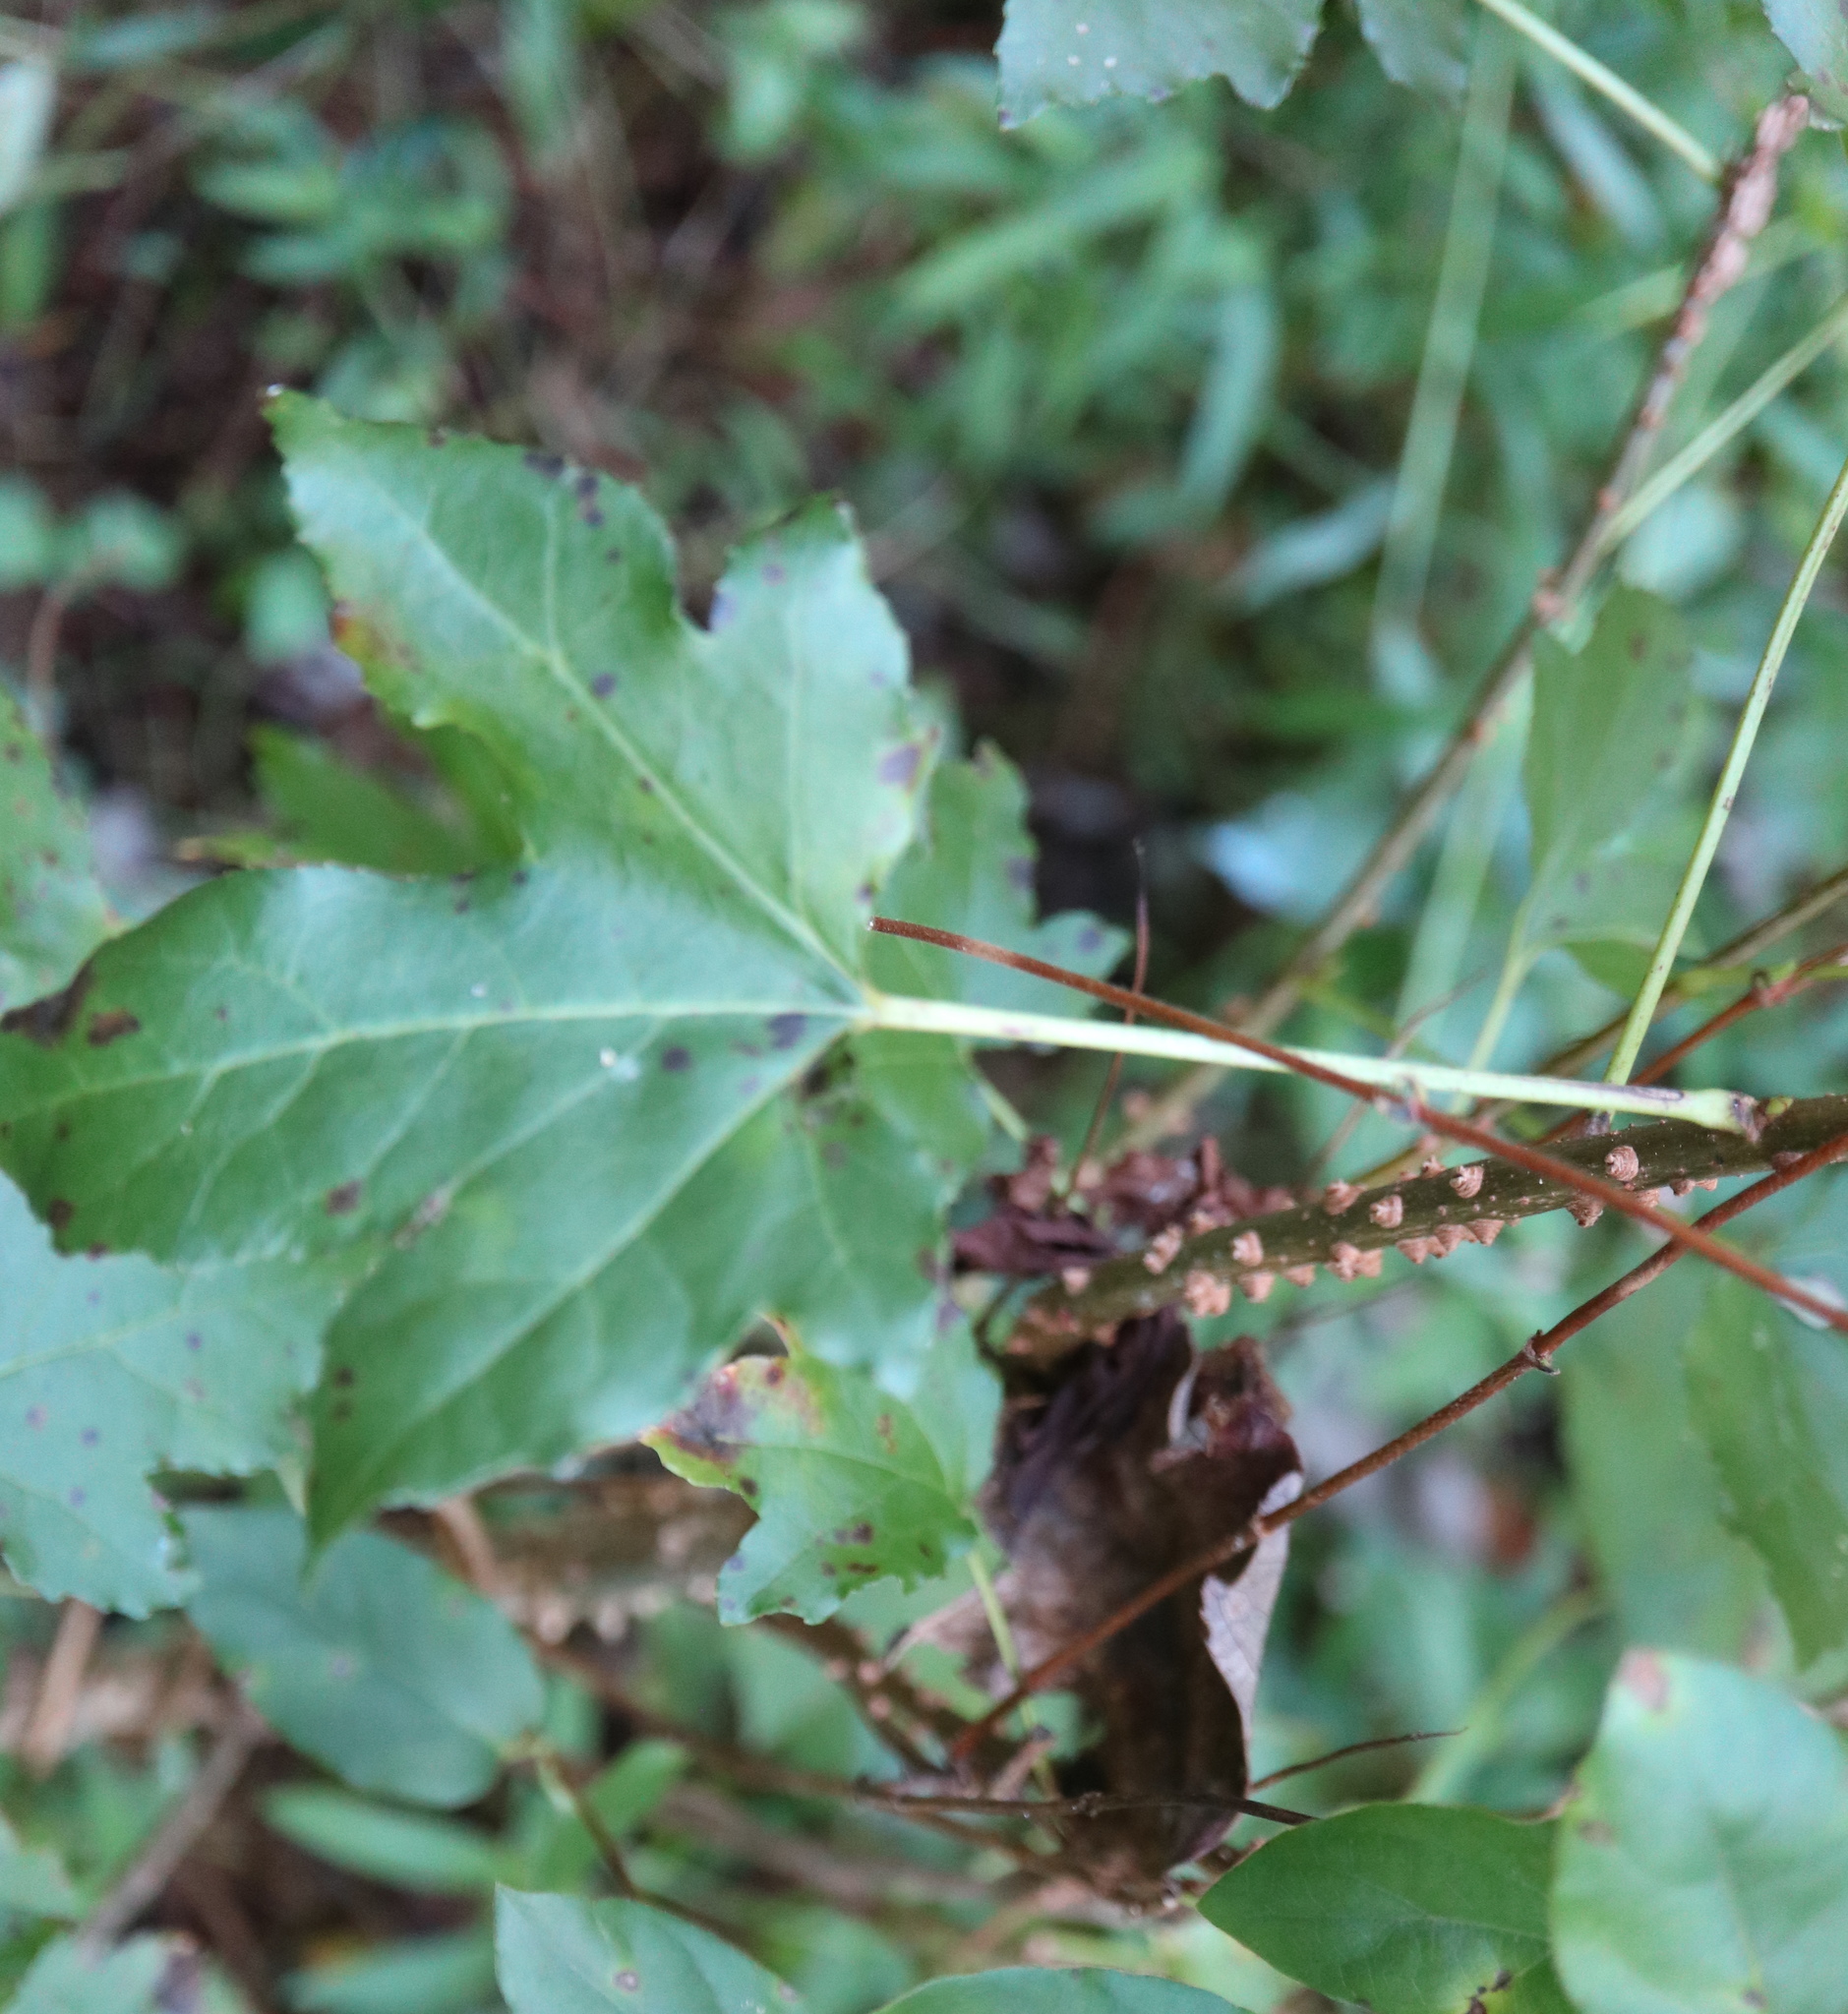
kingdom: Plantae
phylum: Tracheophyta
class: Magnoliopsida
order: Saxifragales
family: Altingiaceae
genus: Liquidambar
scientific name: Liquidambar styraciflua
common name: Sweet gum
